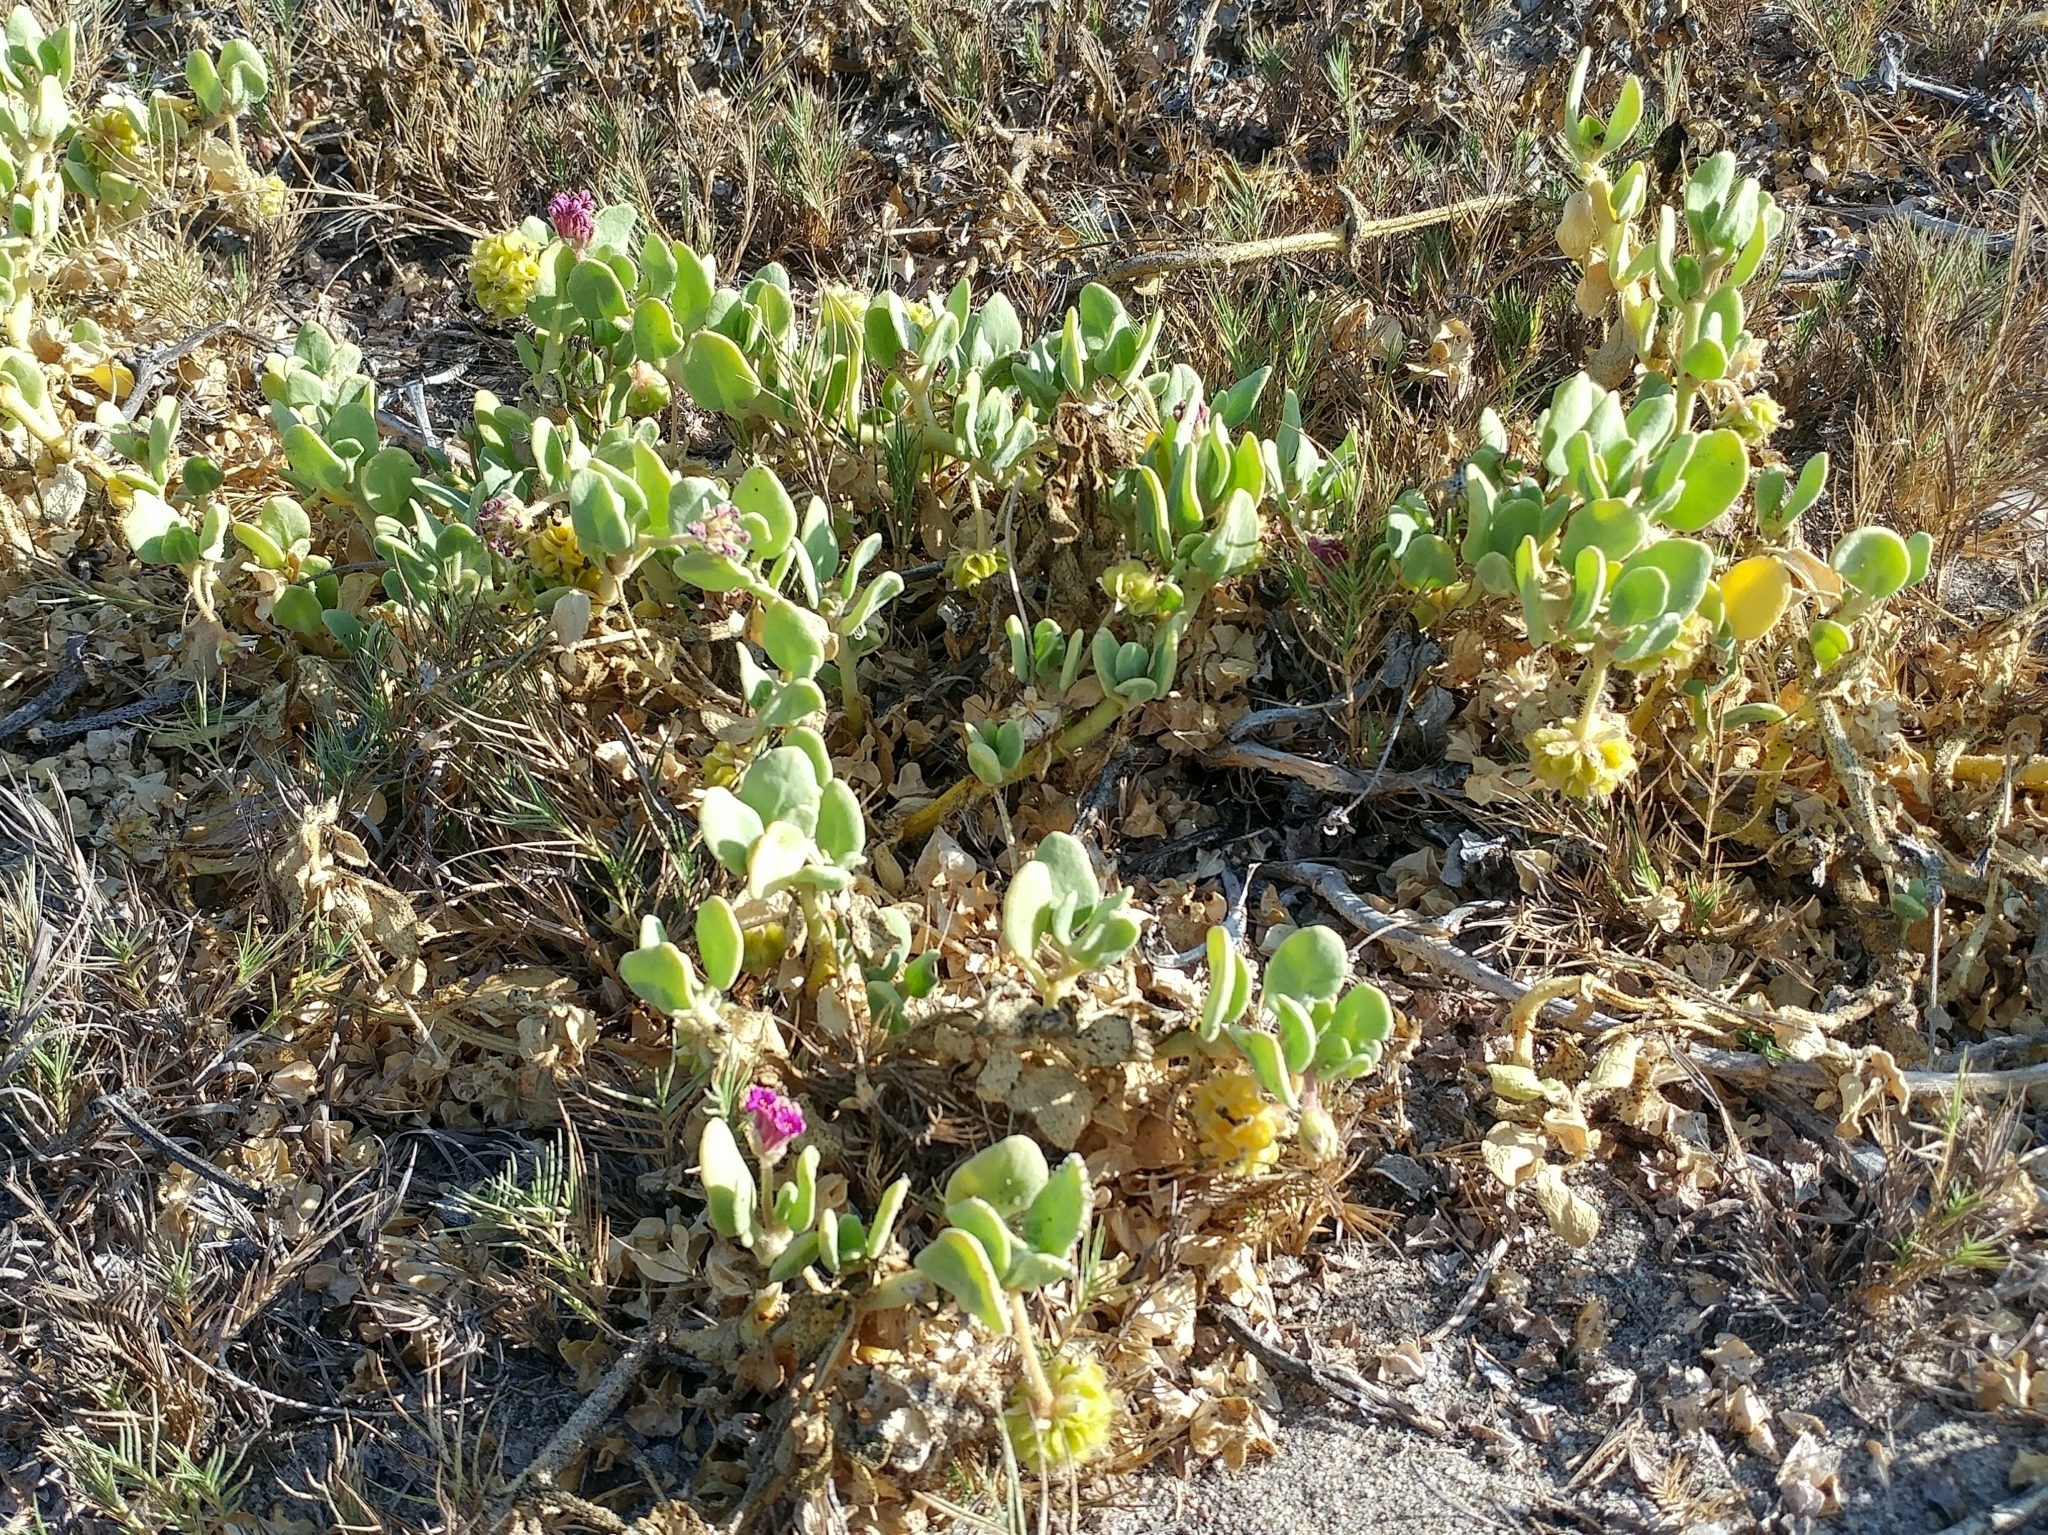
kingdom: Plantae
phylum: Tracheophyta
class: Magnoliopsida
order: Caryophyllales
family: Nyctaginaceae
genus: Abronia
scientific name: Abronia maritima
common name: Red sand-verbena
